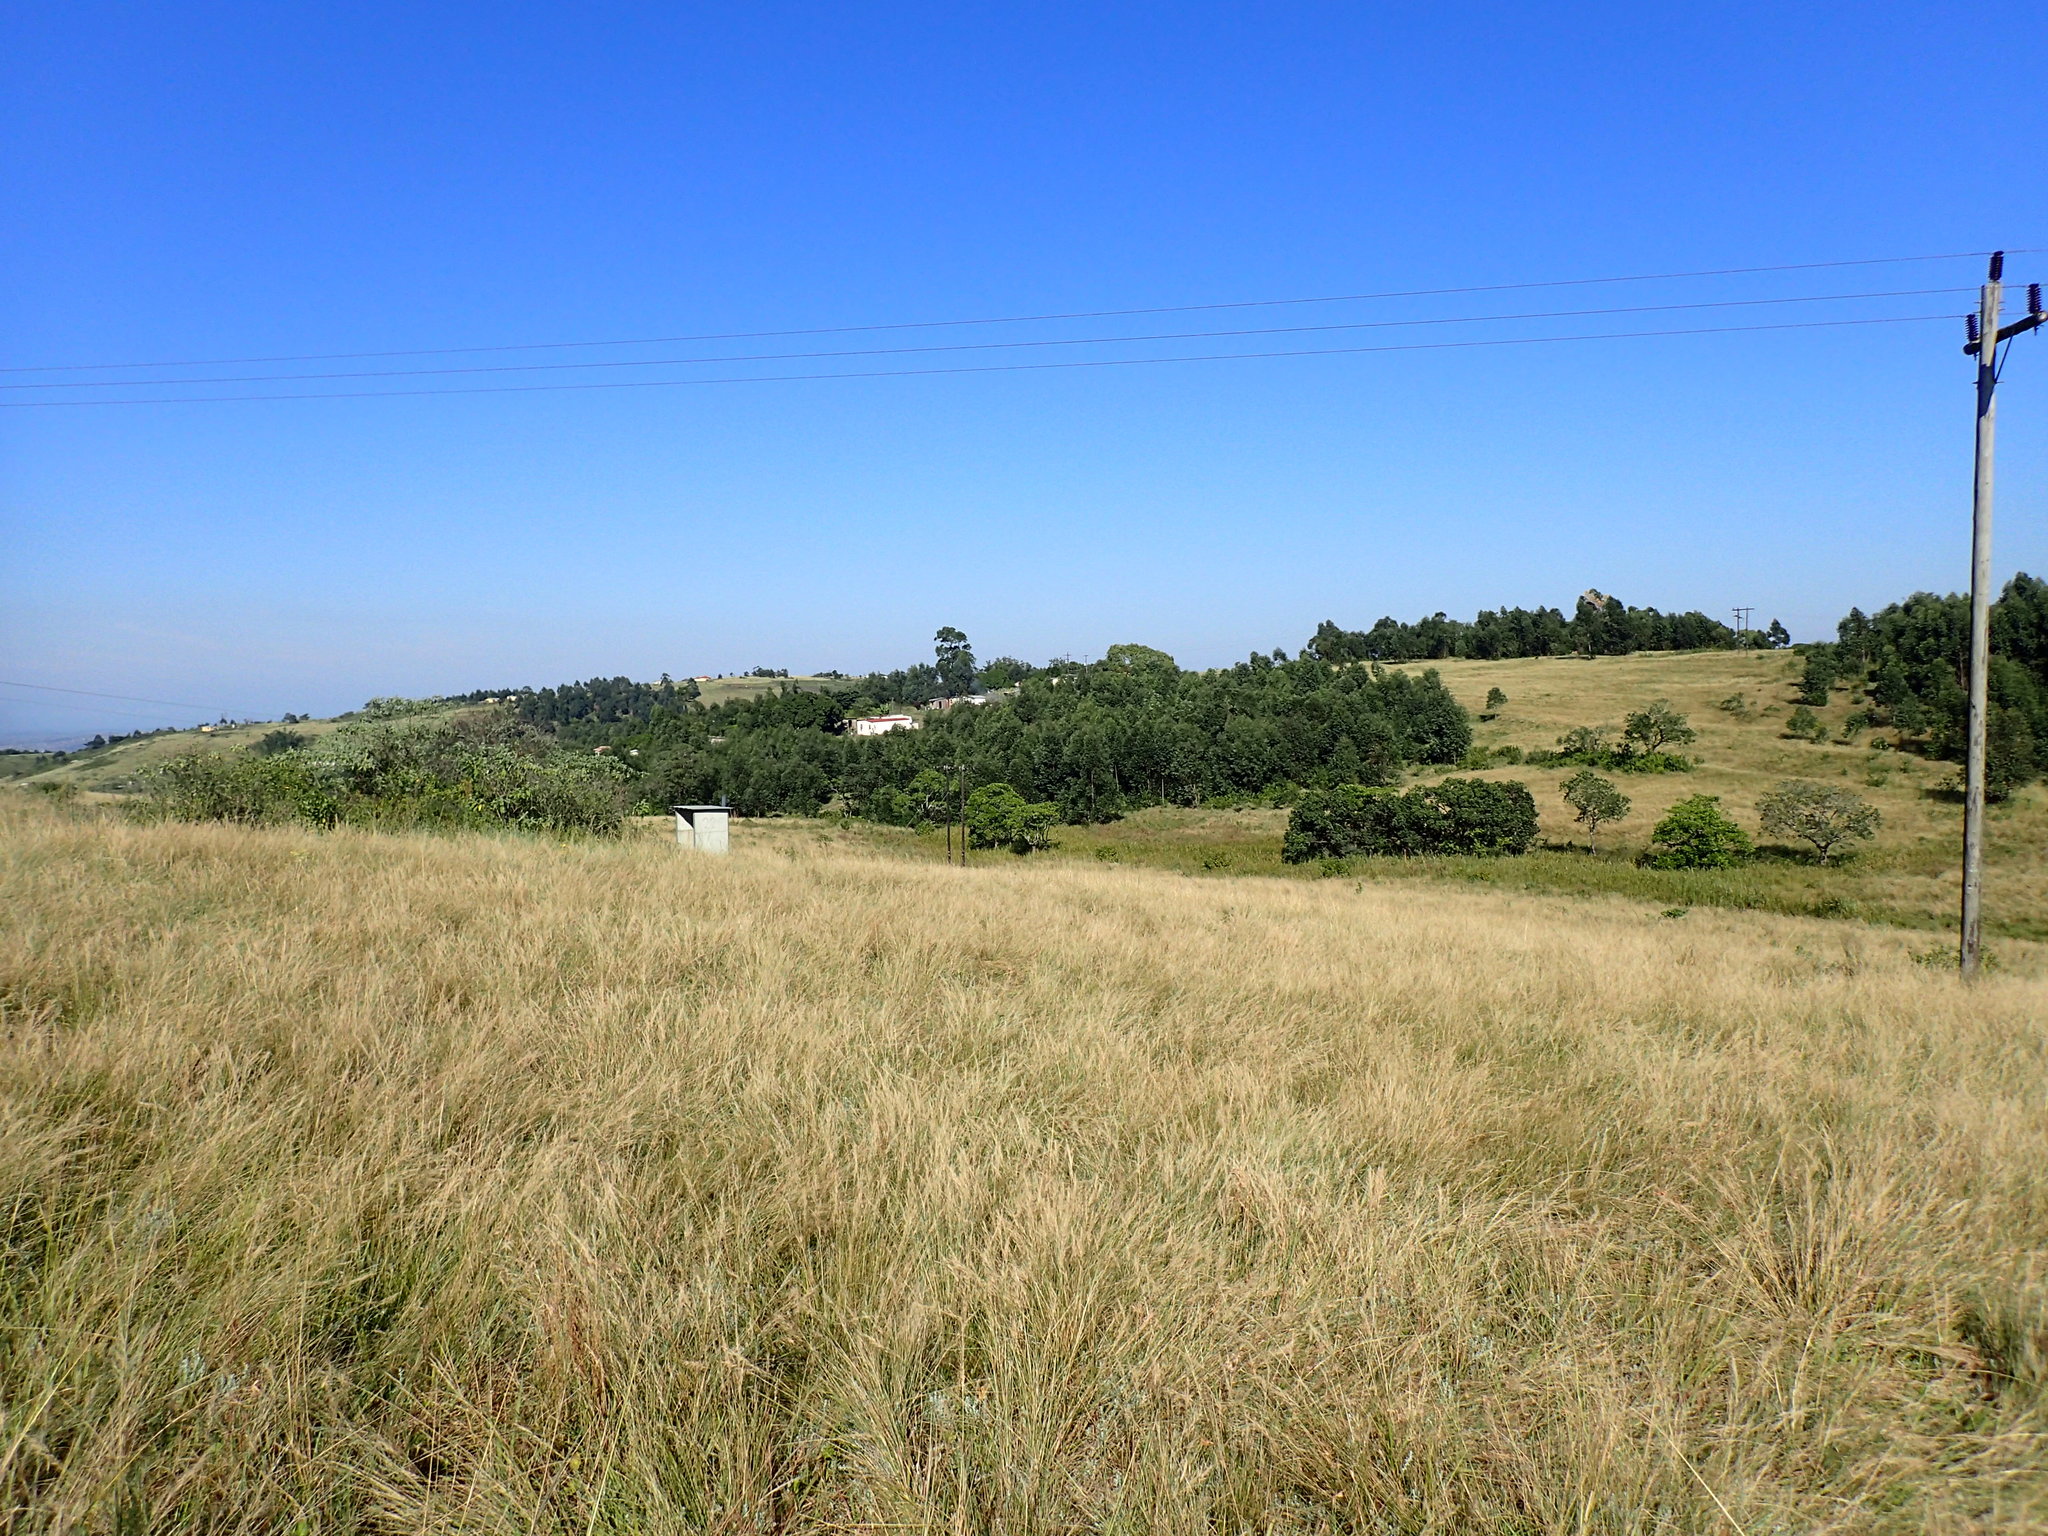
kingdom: Plantae
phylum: Tracheophyta
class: Liliopsida
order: Poales
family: Poaceae
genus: Aristida
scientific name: Aristida junciformis
